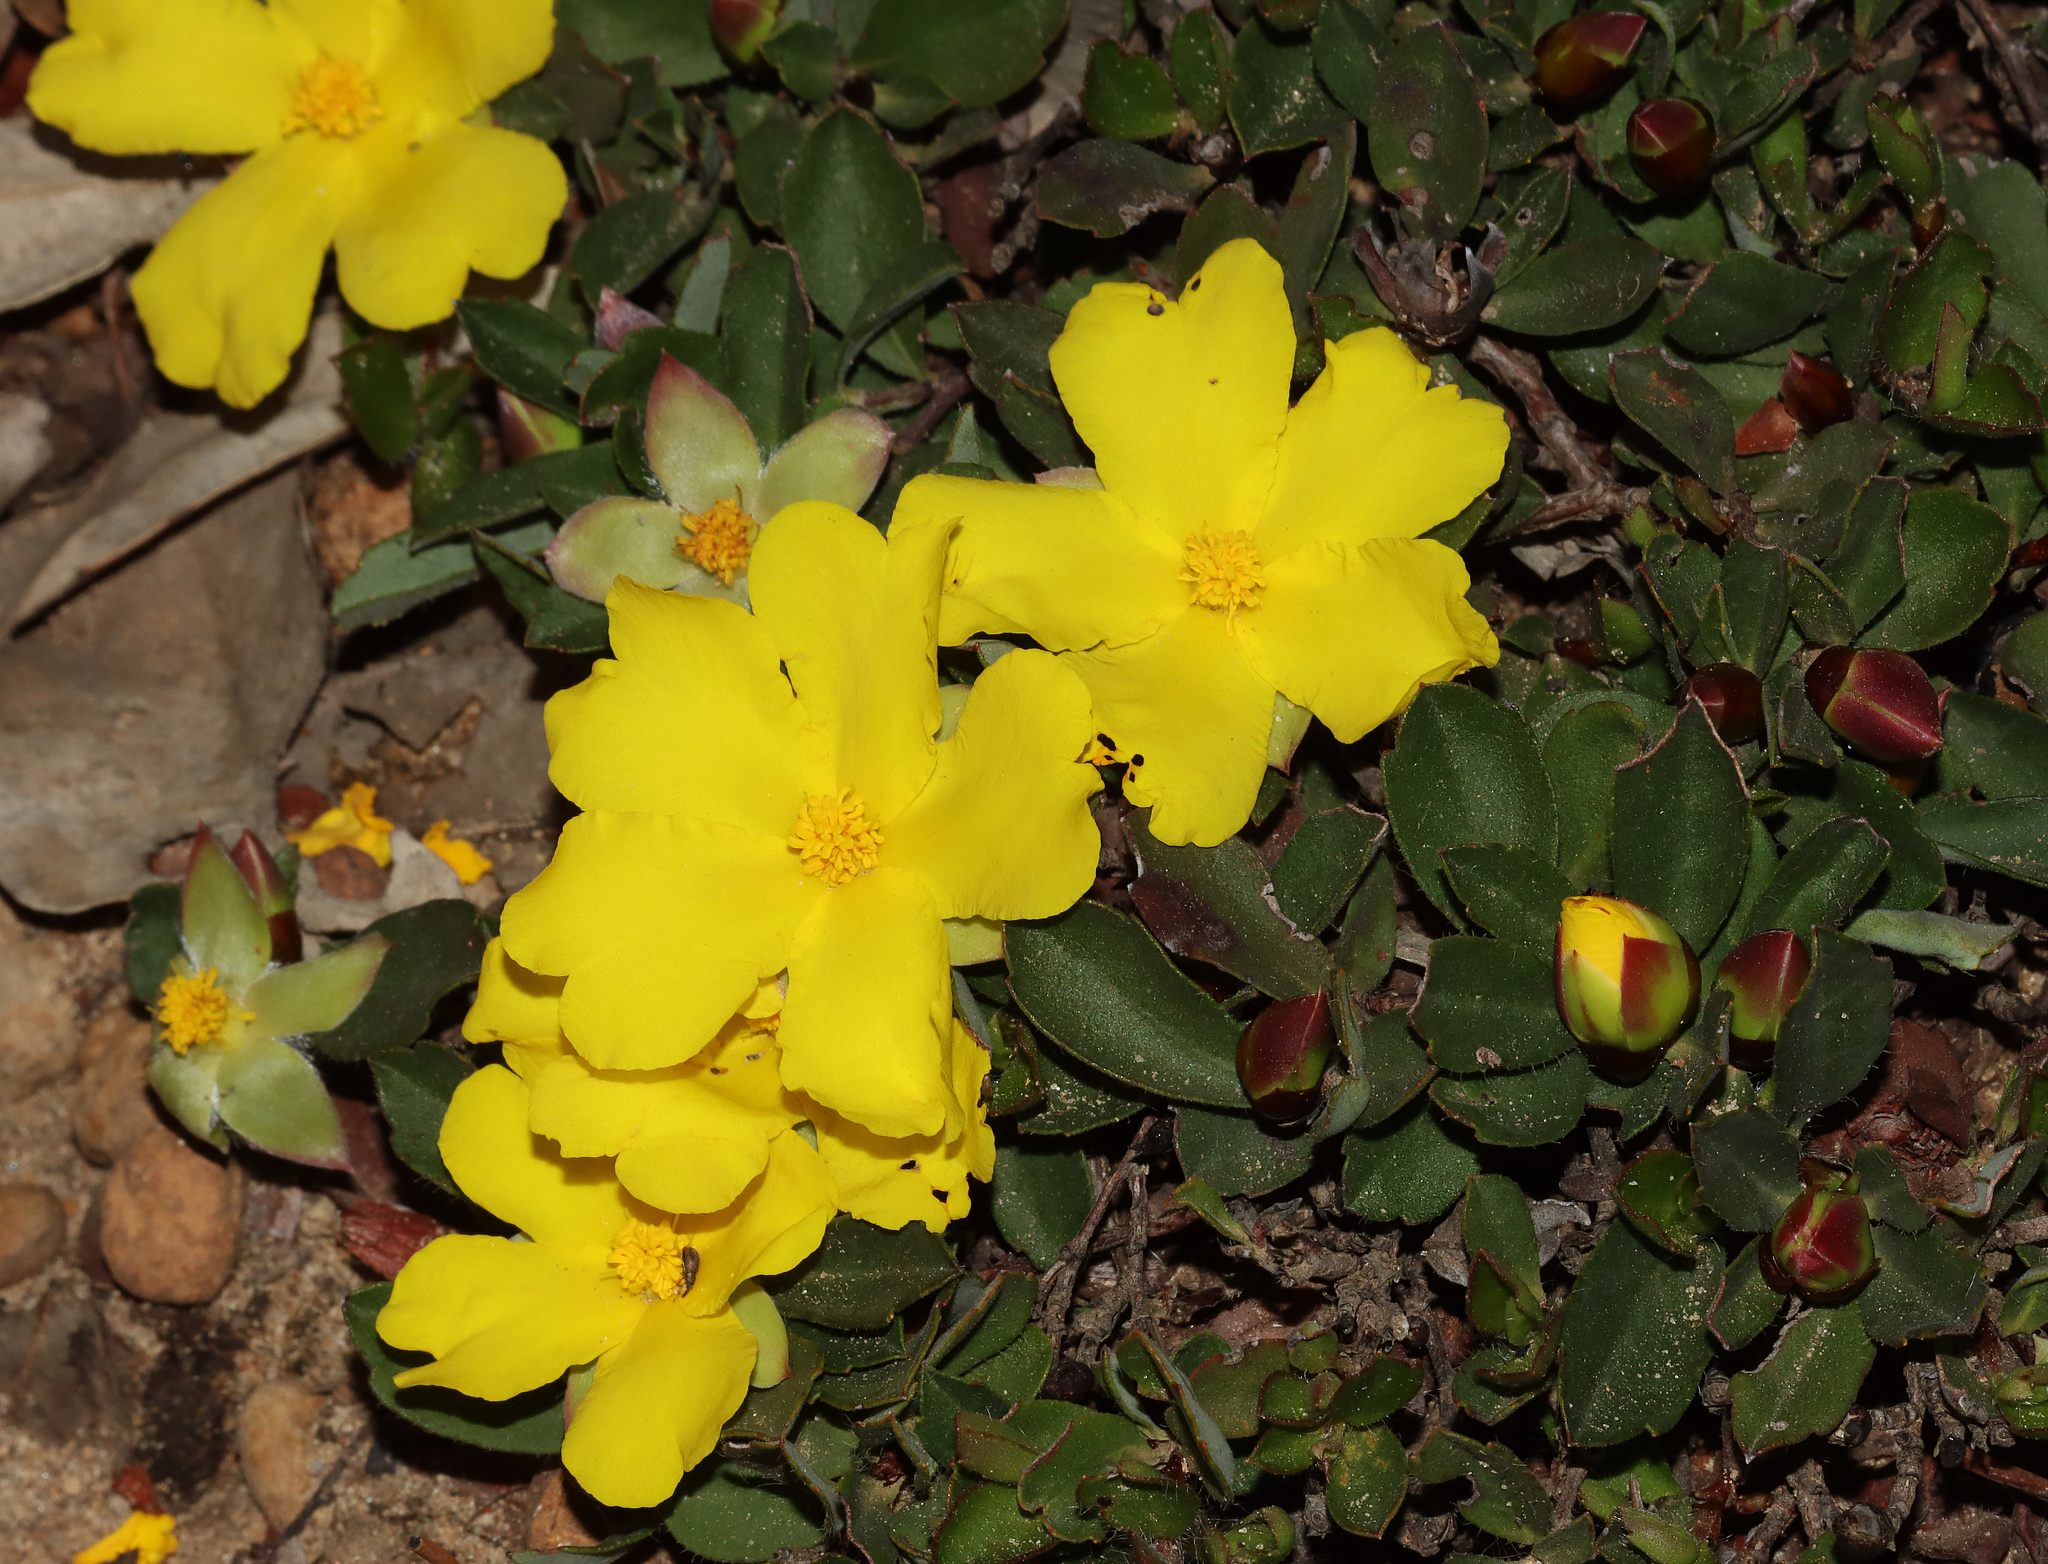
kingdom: Plantae
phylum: Tracheophyta
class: Magnoliopsida
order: Dilleniales
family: Dilleniaceae
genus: Hibbertia
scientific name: Hibbertia hortiorum
